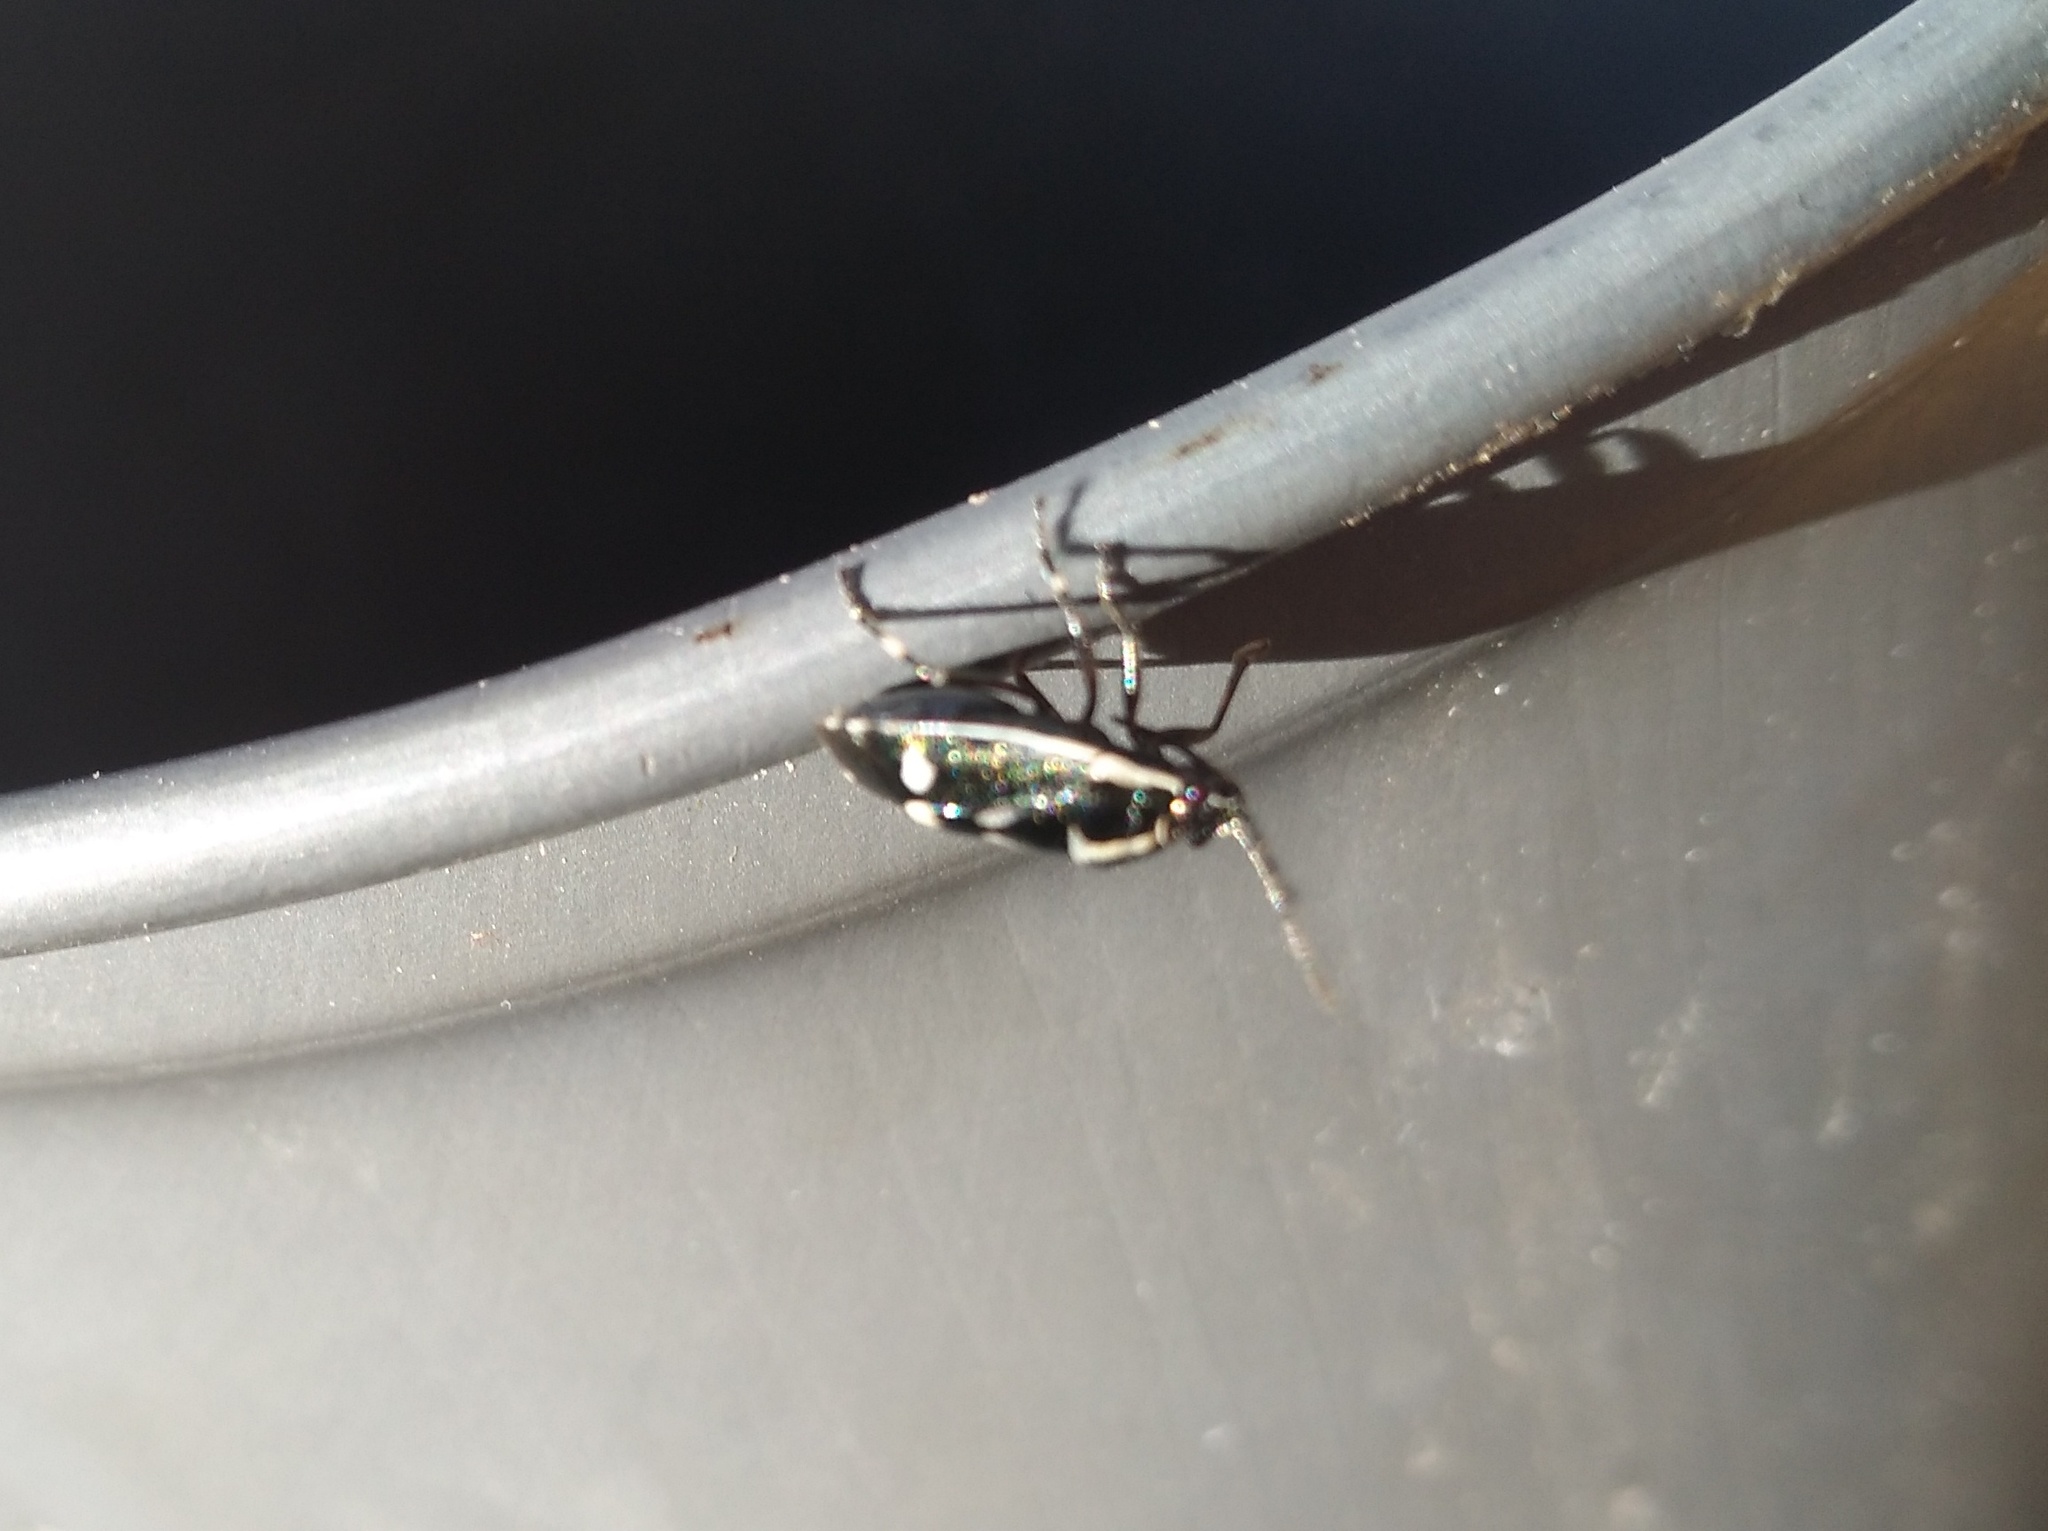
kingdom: Animalia
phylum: Arthropoda
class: Insecta
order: Hemiptera
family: Pentatomidae
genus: Eurydema
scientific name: Eurydema oleracea
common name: Cabbage bug
